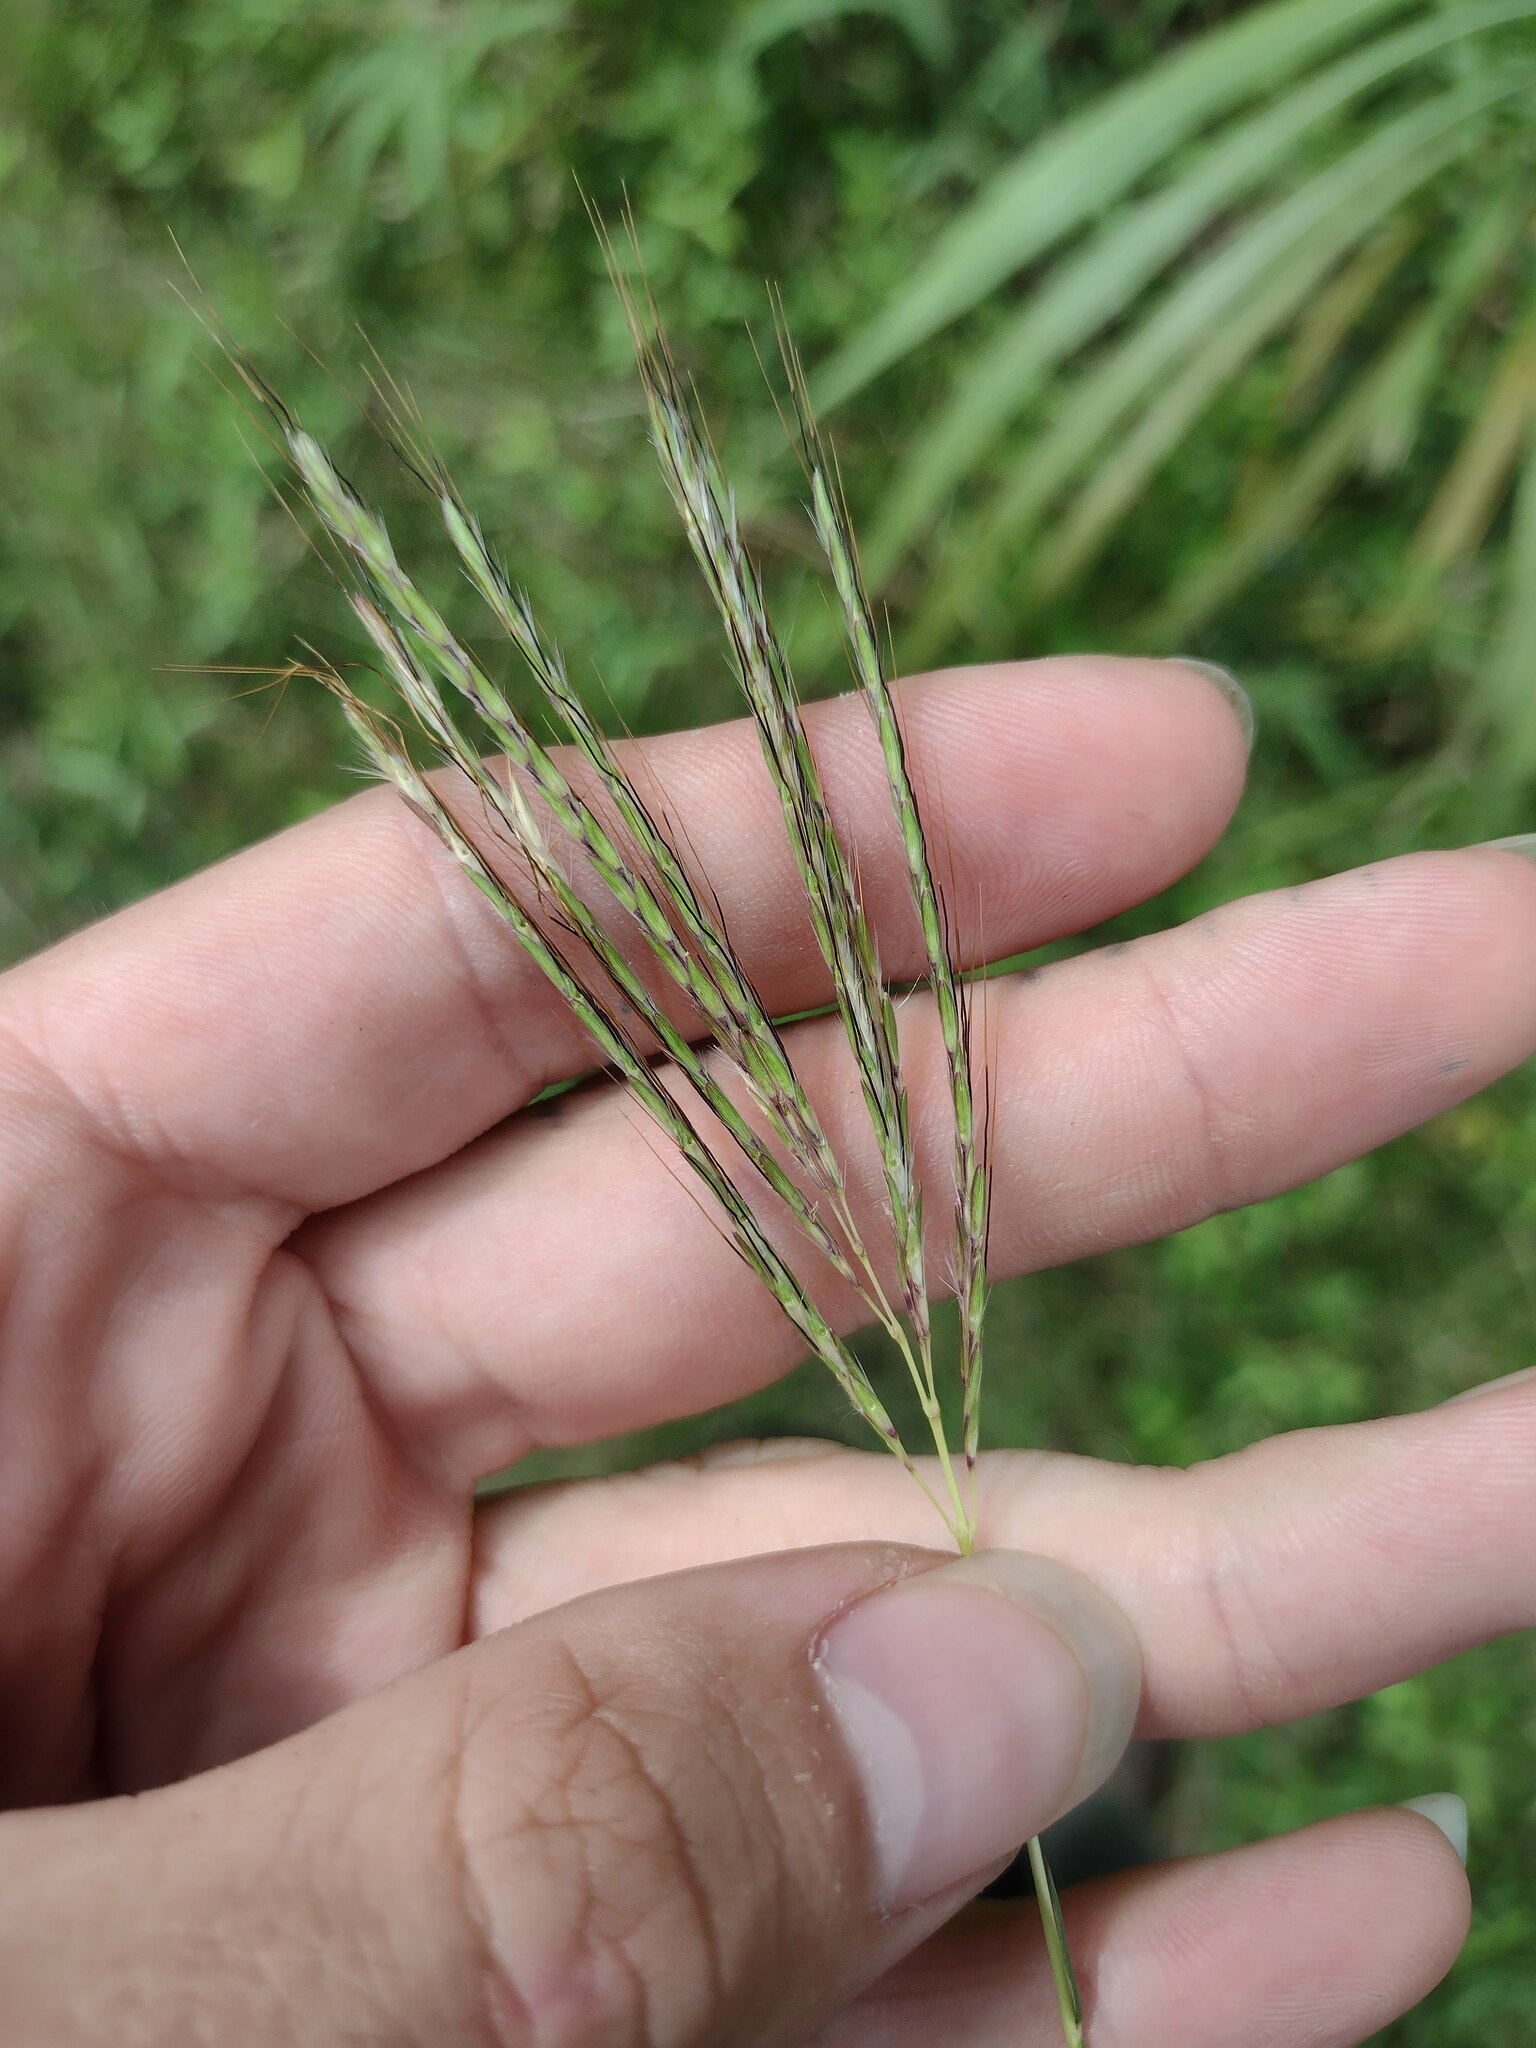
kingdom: Plantae
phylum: Tracheophyta
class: Liliopsida
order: Poales
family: Poaceae
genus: Bothriochloa
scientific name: Bothriochloa pertusa
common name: Pitted beardgrass
